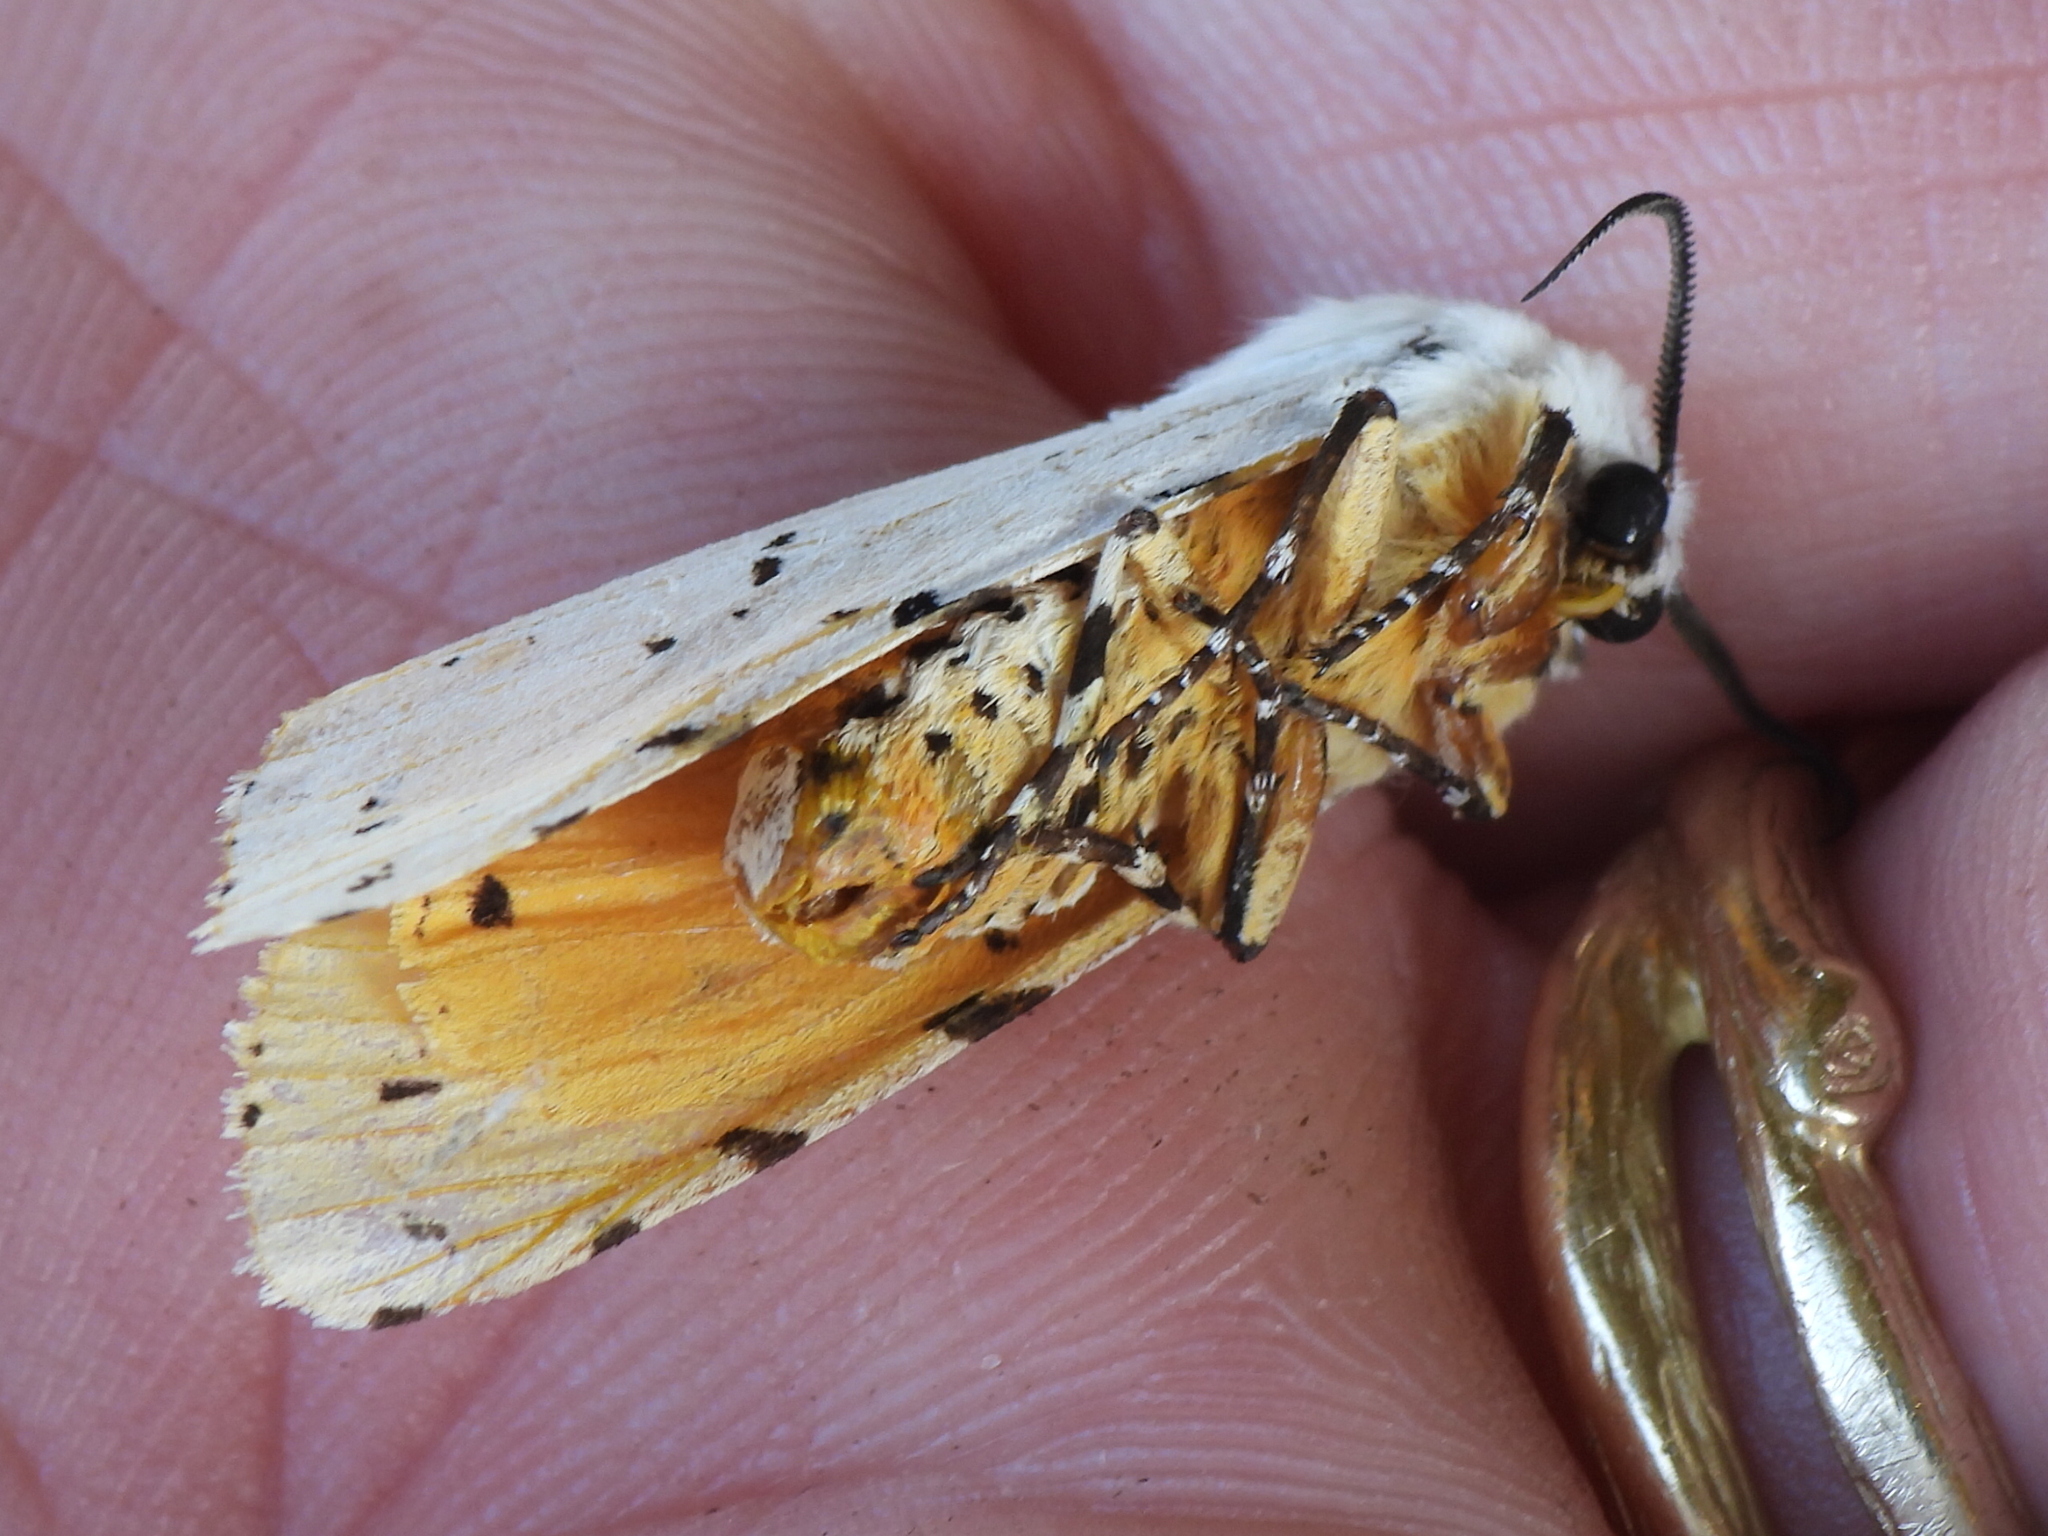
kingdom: Animalia
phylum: Arthropoda
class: Insecta
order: Lepidoptera
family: Erebidae
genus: Estigmene
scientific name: Estigmene acrea
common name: Salt marsh moth
